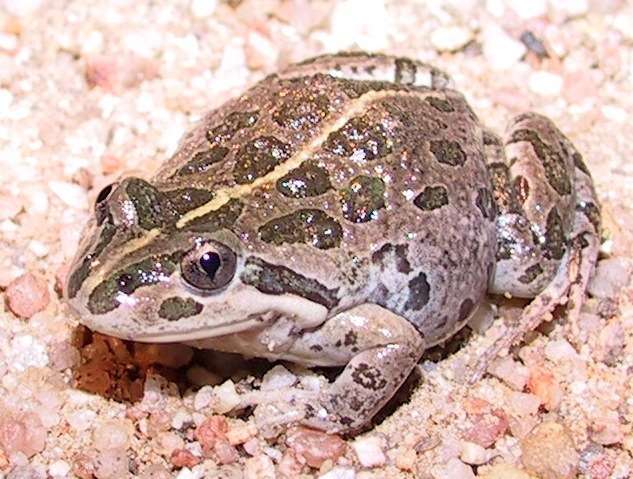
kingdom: Animalia
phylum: Chordata
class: Amphibia
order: Anura
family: Limnodynastidae
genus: Limnodynastes
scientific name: Limnodynastes tasmaniensis
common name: Spotted marsh frog
